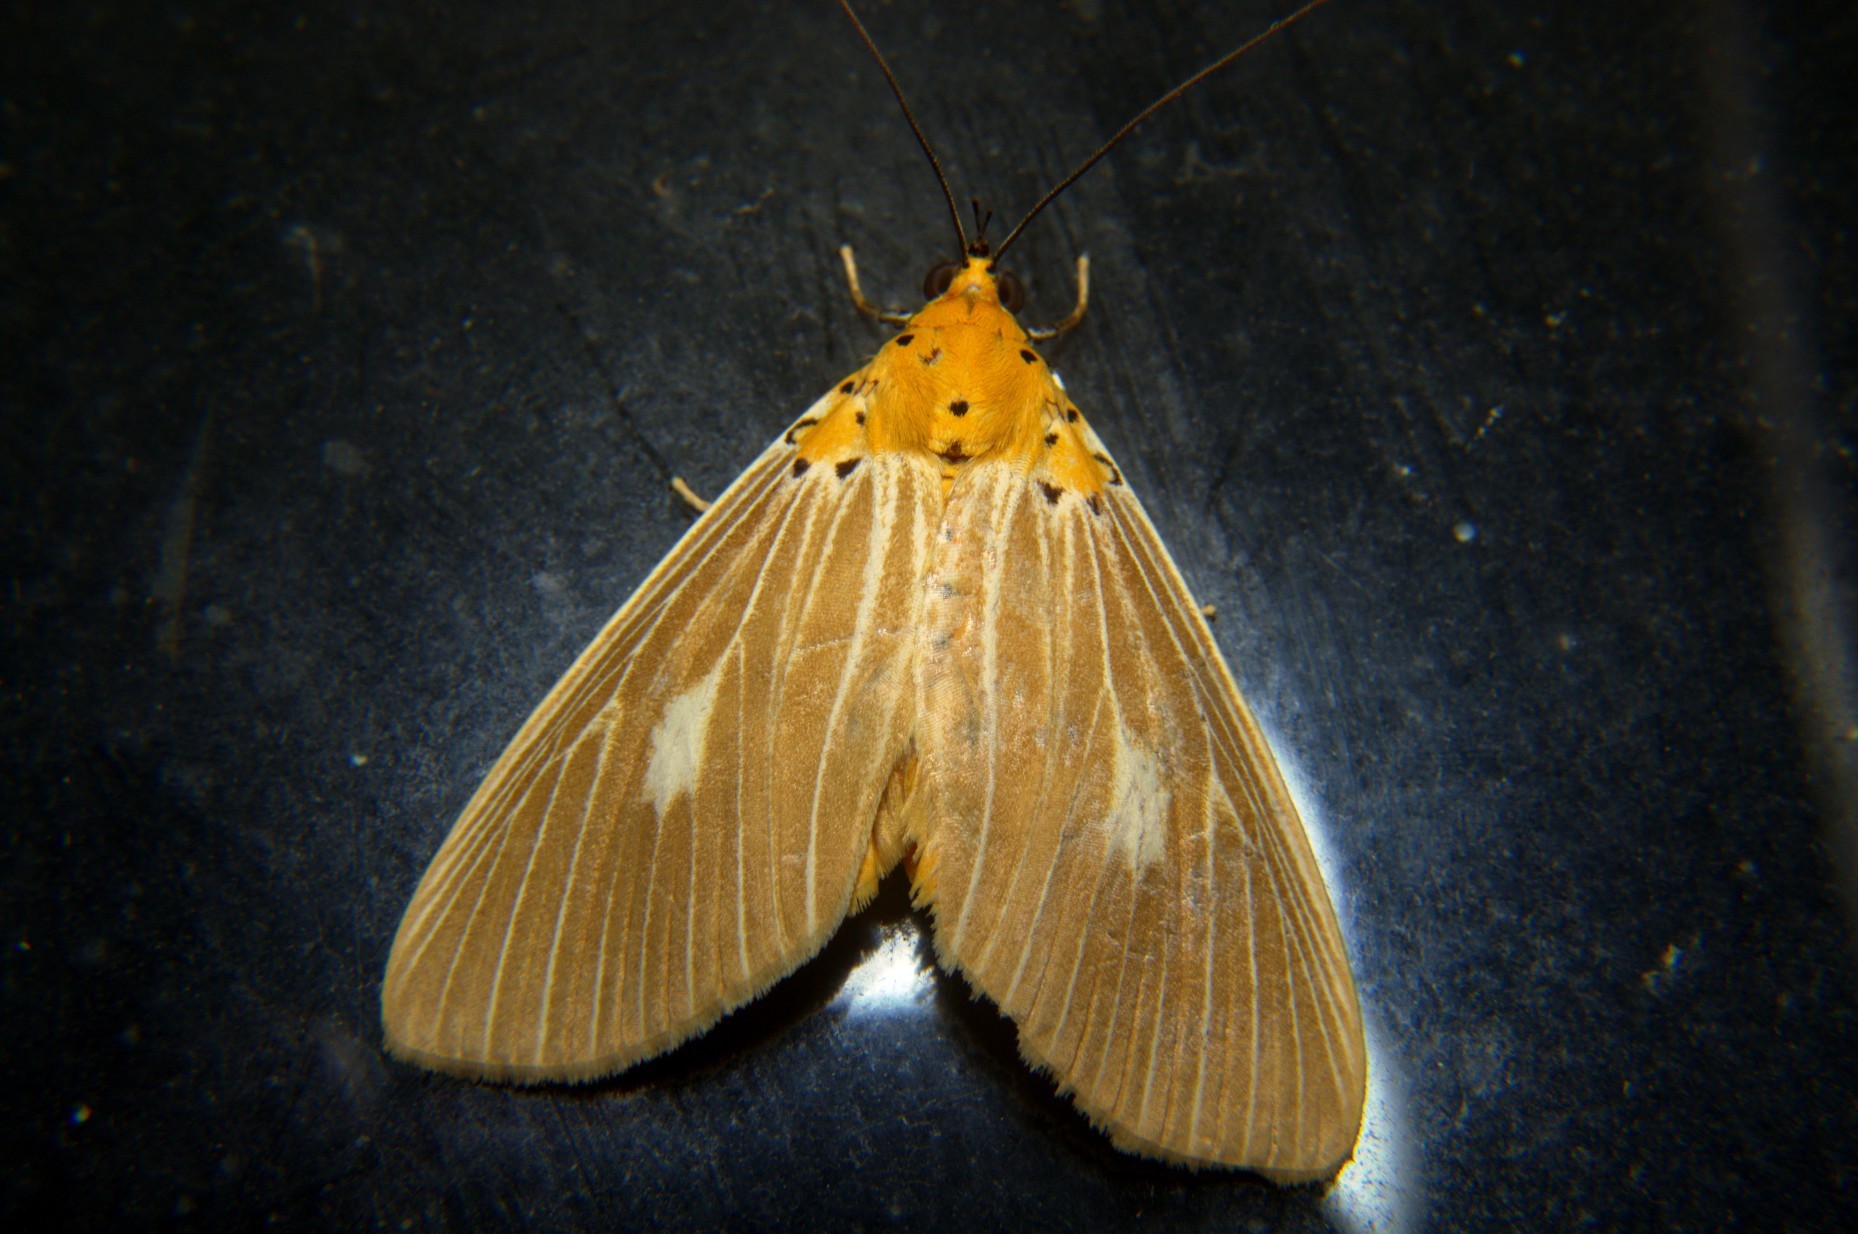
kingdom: Animalia
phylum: Arthropoda
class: Insecta
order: Lepidoptera
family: Erebidae
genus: Asota
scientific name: Asota plaginota
